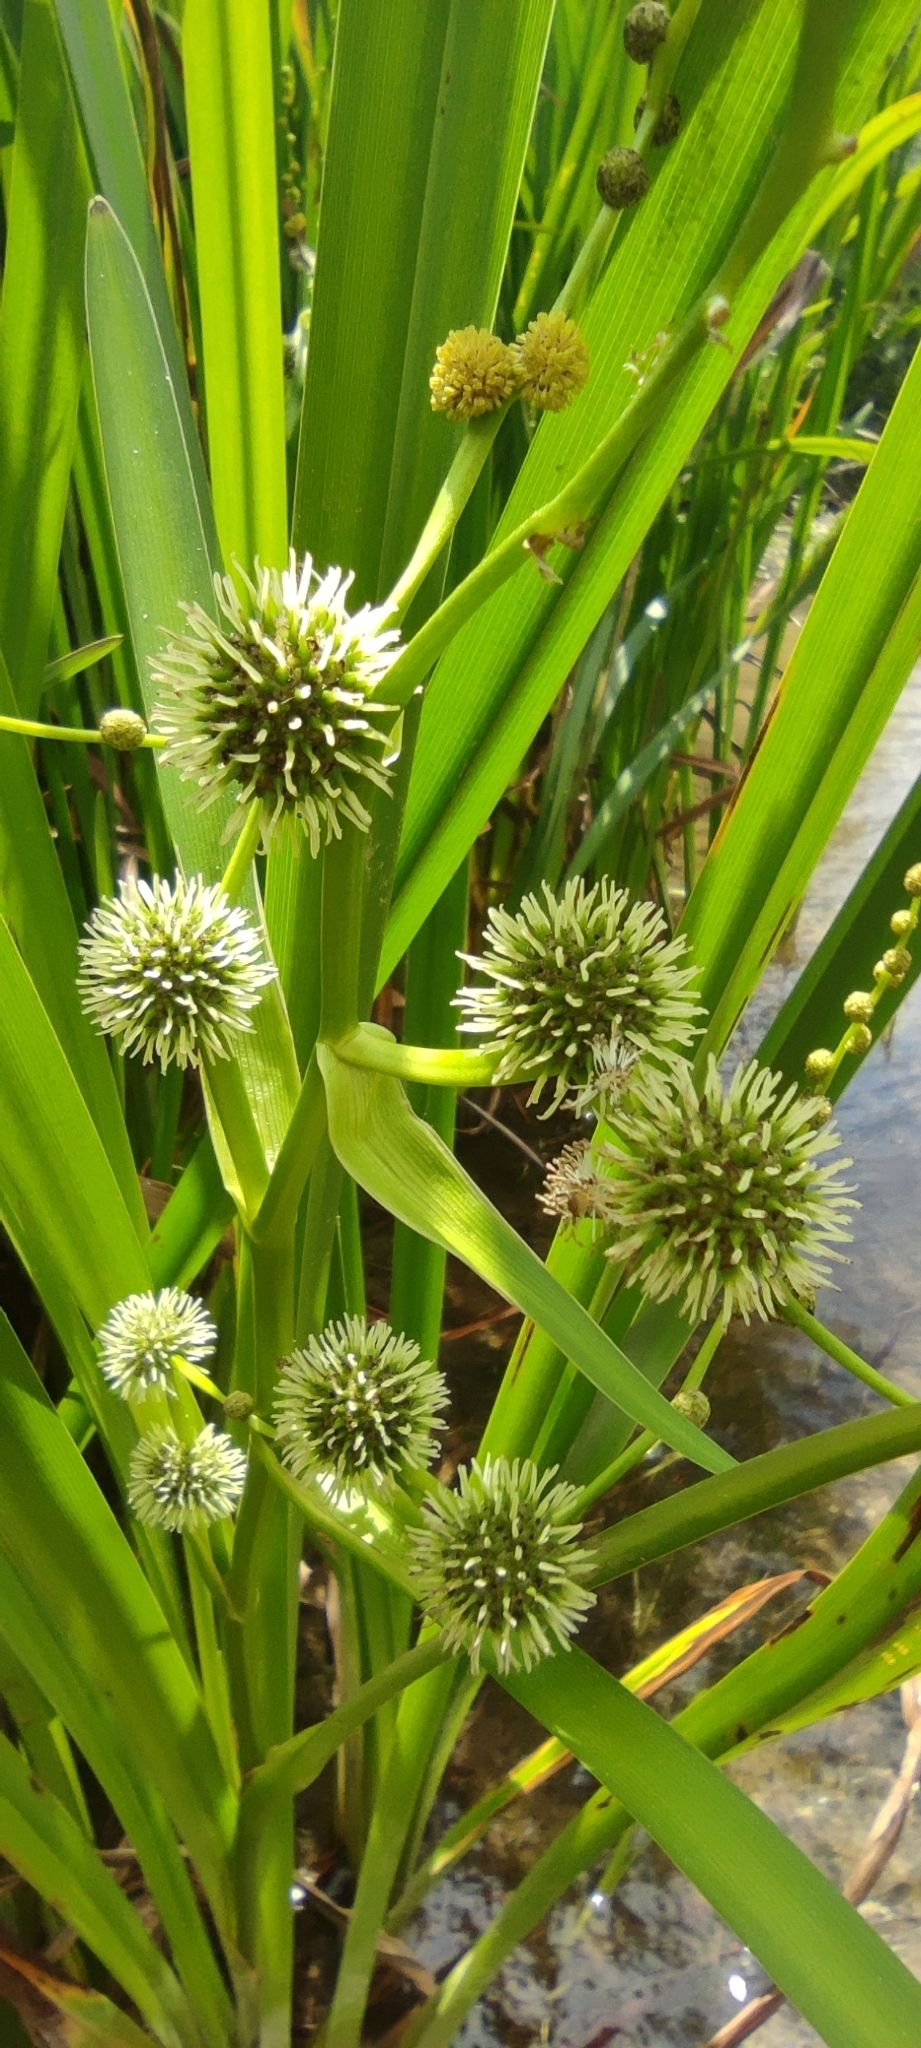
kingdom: Plantae
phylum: Tracheophyta
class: Liliopsida
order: Poales
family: Typhaceae
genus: Sparganium
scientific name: Sparganium erectum
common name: Branched bur-reed
